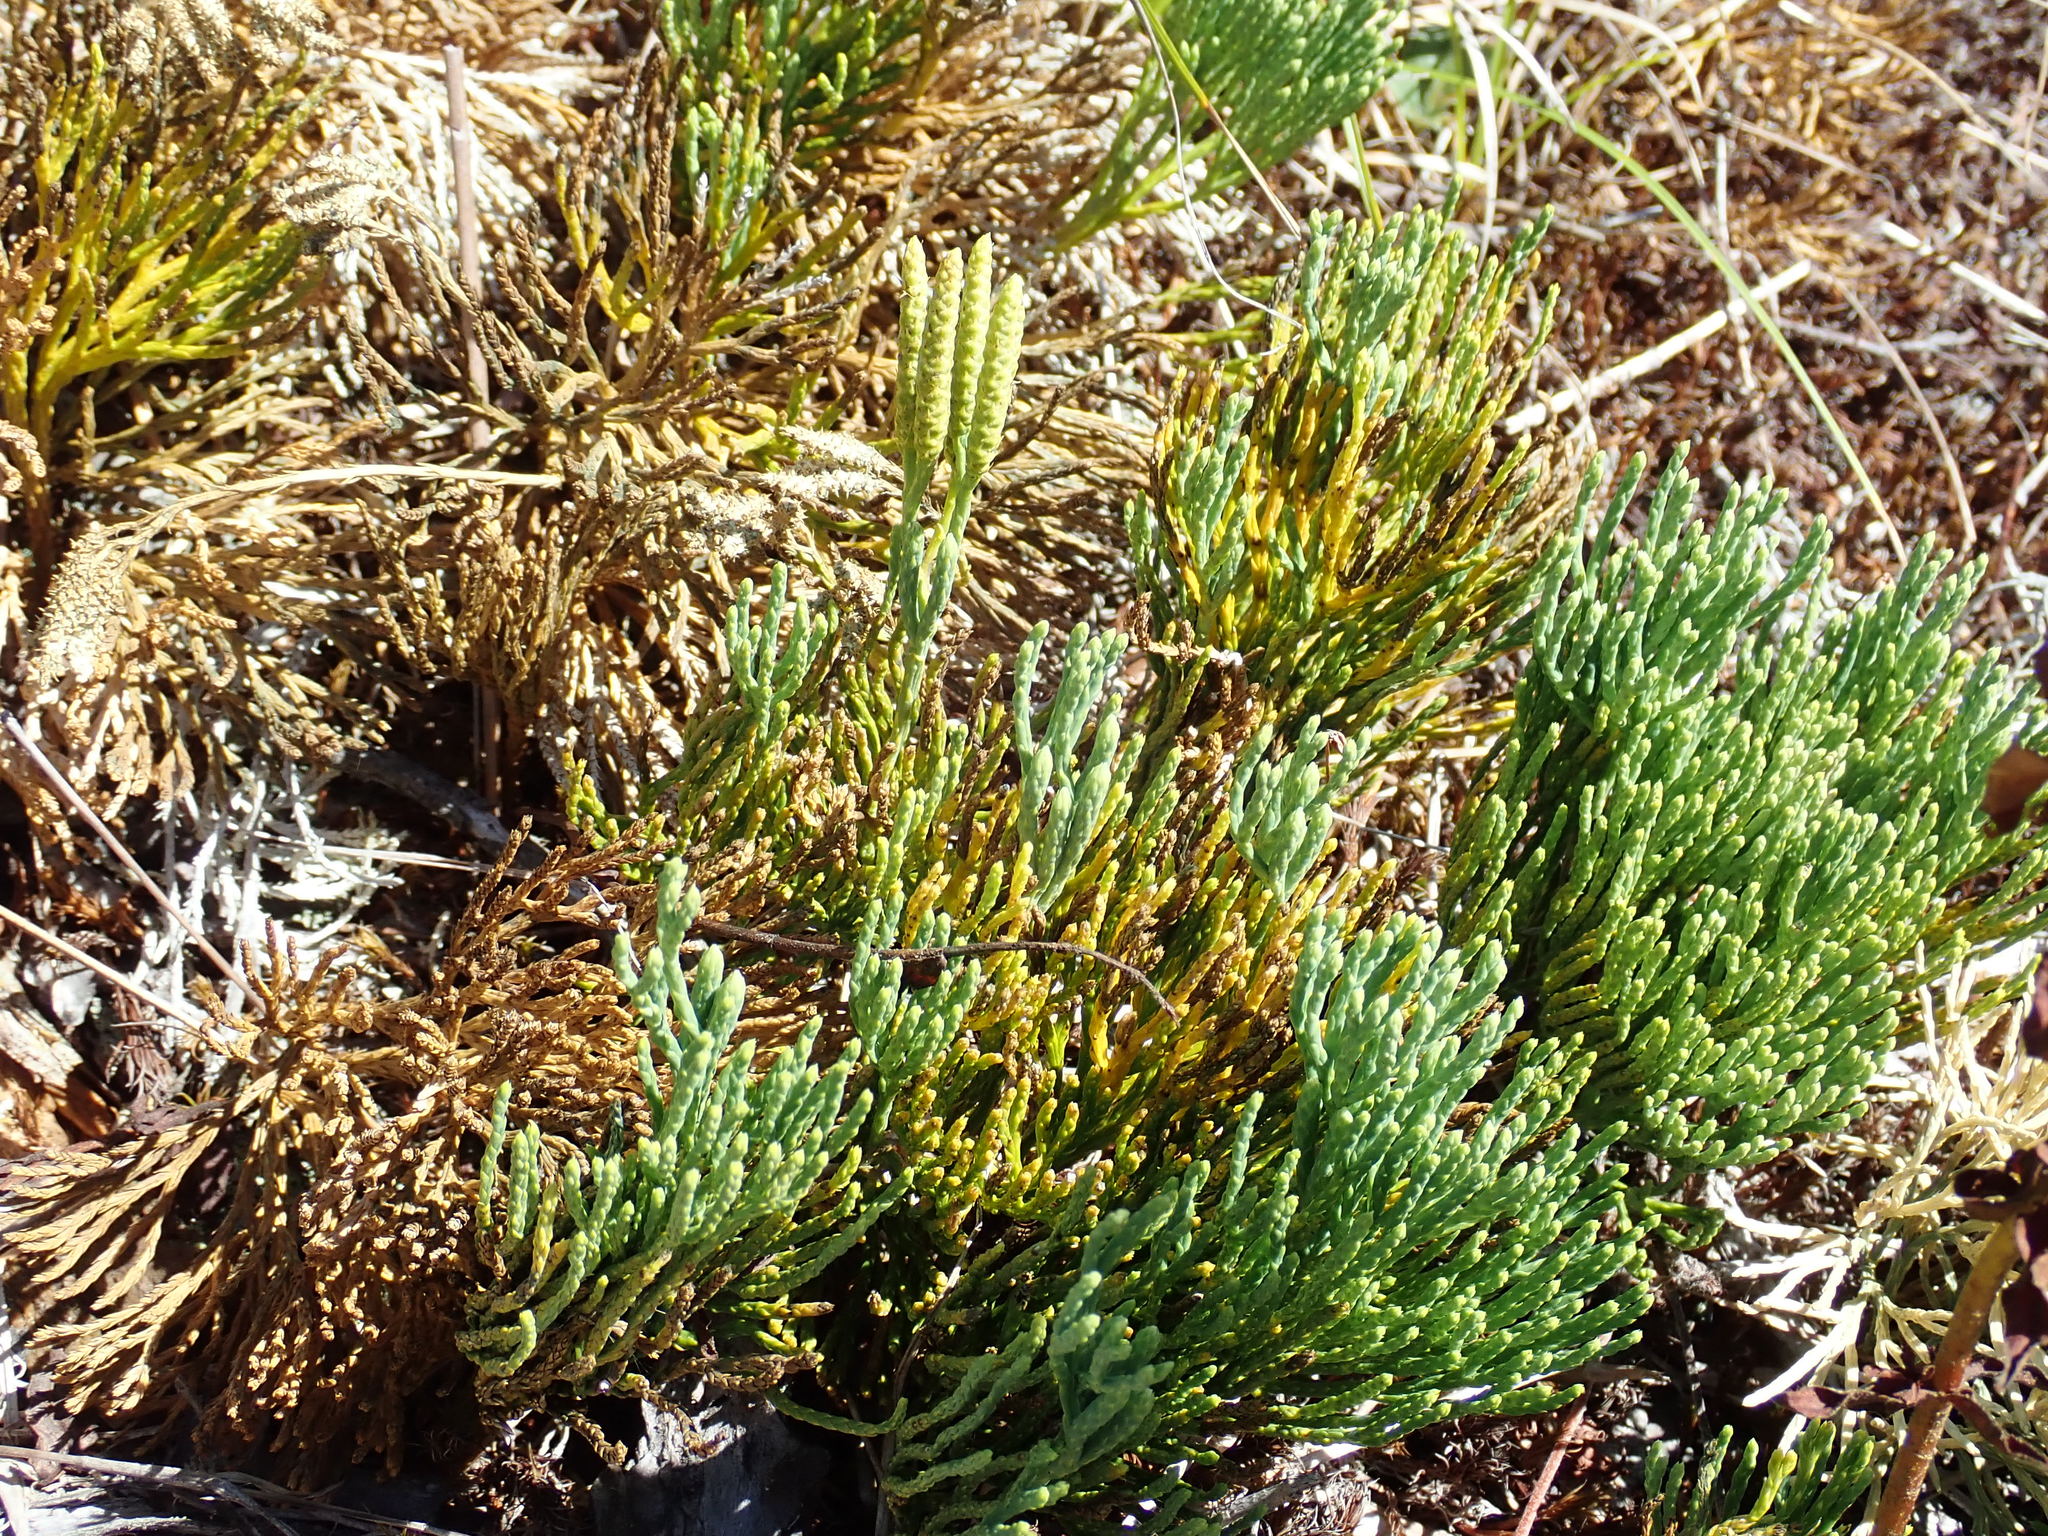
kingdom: Plantae
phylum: Tracheophyta
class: Lycopodiopsida
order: Lycopodiales
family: Lycopodiaceae
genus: Diphasiastrum
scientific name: Diphasiastrum tristachyum
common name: Blue ground-cedar
